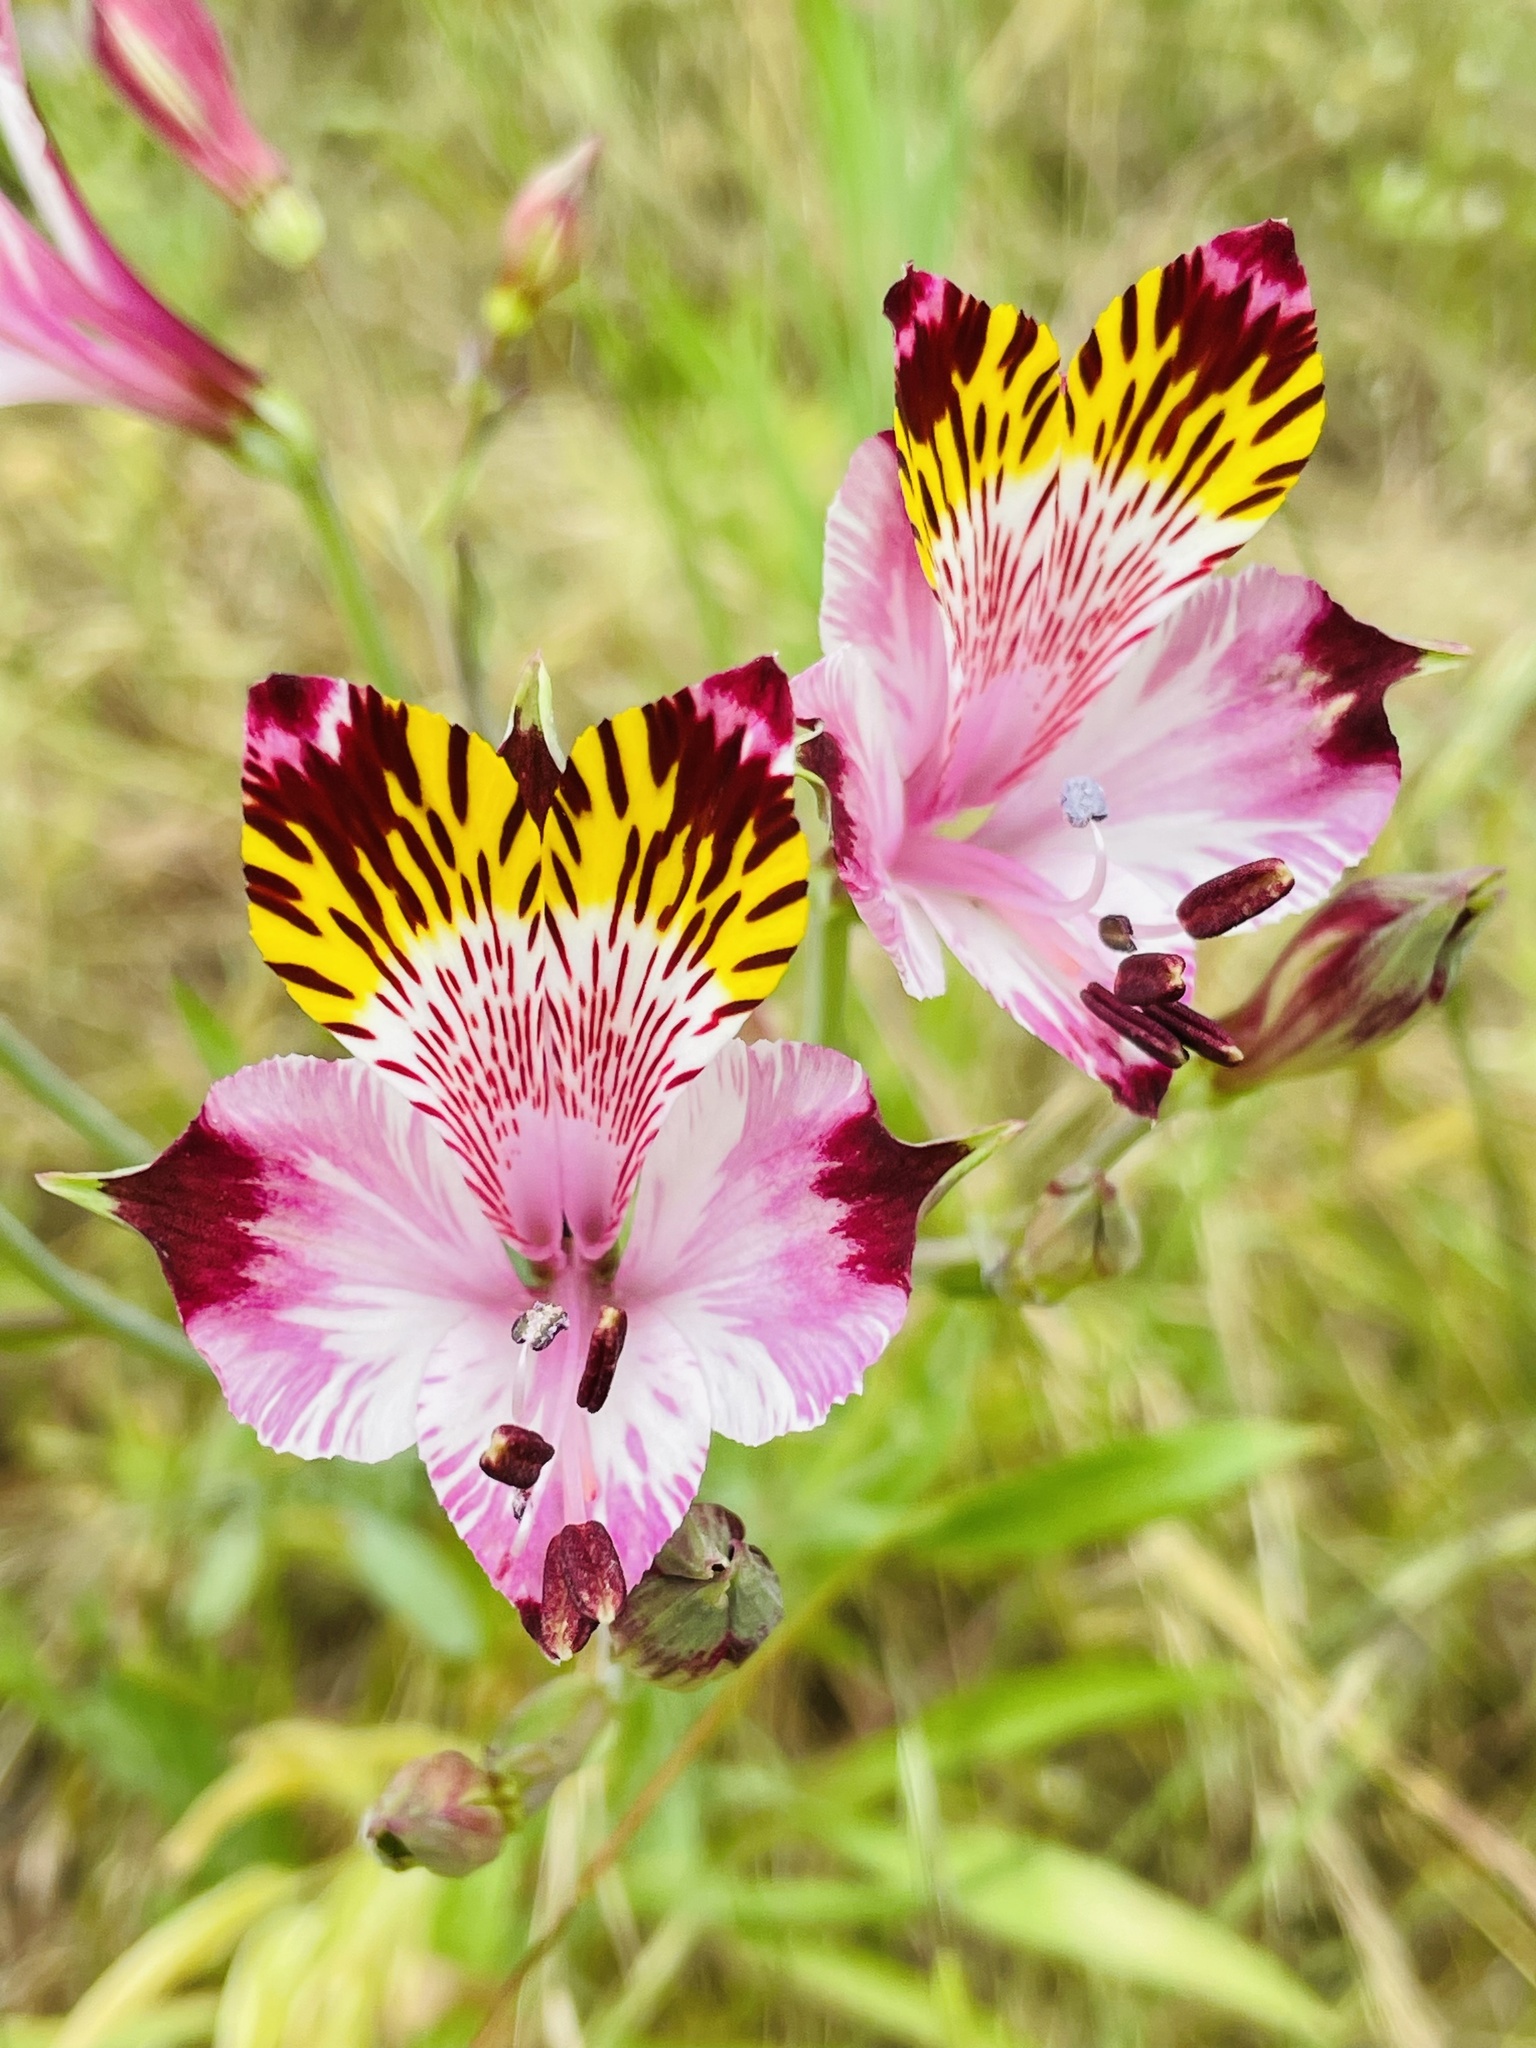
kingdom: Plantae
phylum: Tracheophyta
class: Liliopsida
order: Liliales
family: Alstroemeriaceae
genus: Alstroemeria
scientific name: Alstroemeria pulchra
